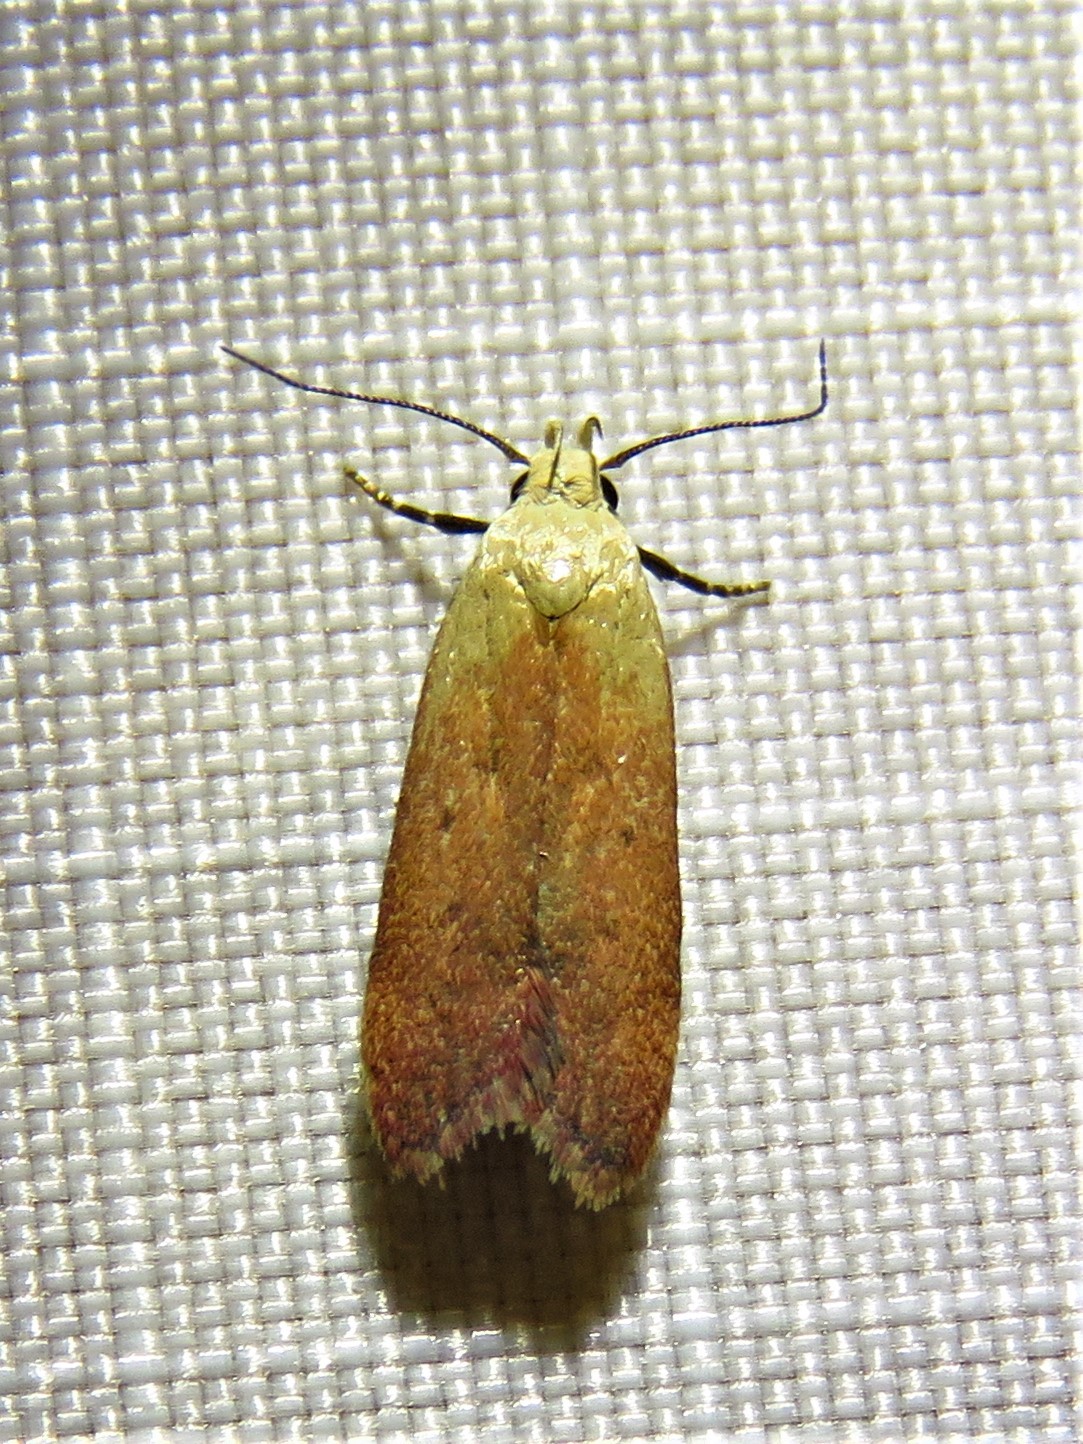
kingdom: Animalia
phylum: Arthropoda
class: Insecta
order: Lepidoptera
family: Gelechiidae
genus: Anacampsis
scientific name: Anacampsis fullonella
